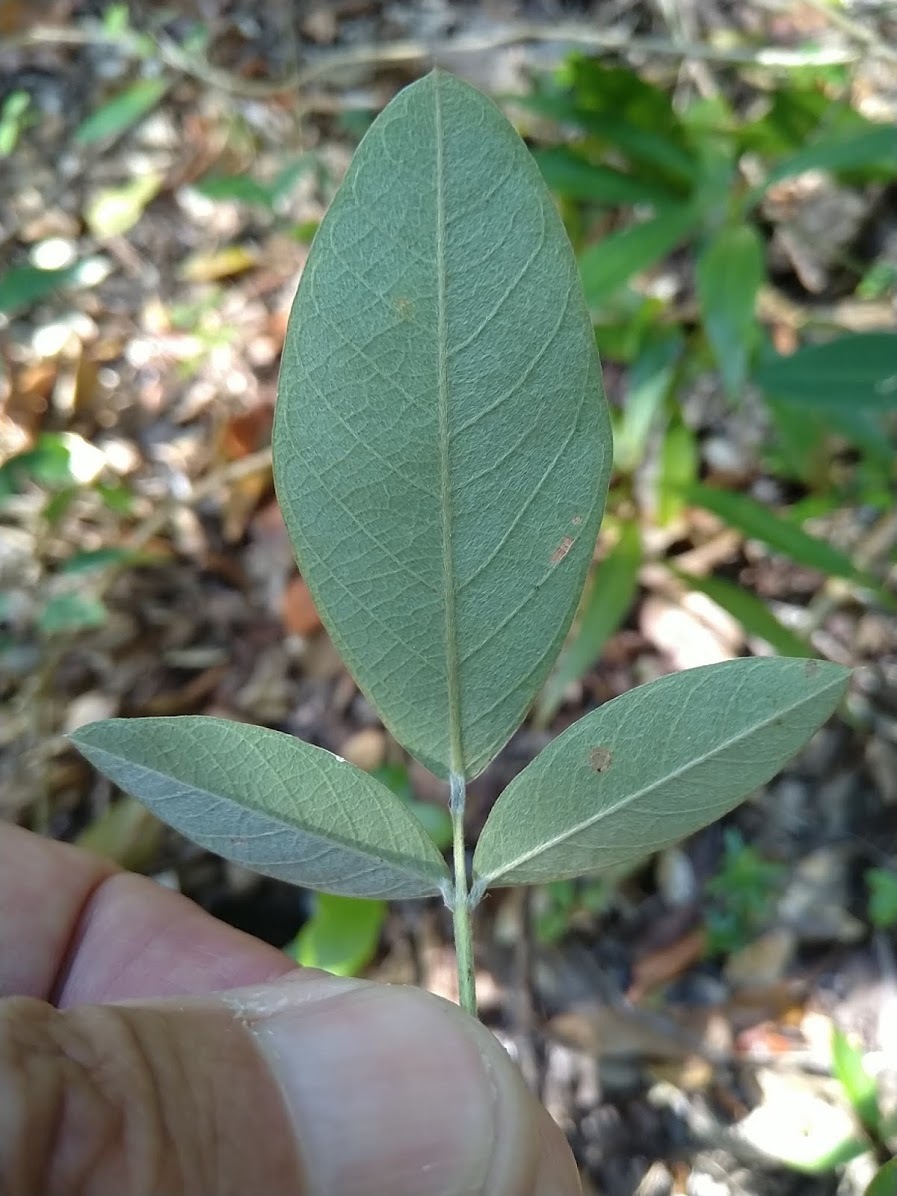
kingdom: Plantae
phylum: Tracheophyta
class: Magnoliopsida
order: Fabales
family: Fabaceae
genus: Grona
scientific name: Grona nemorosa
